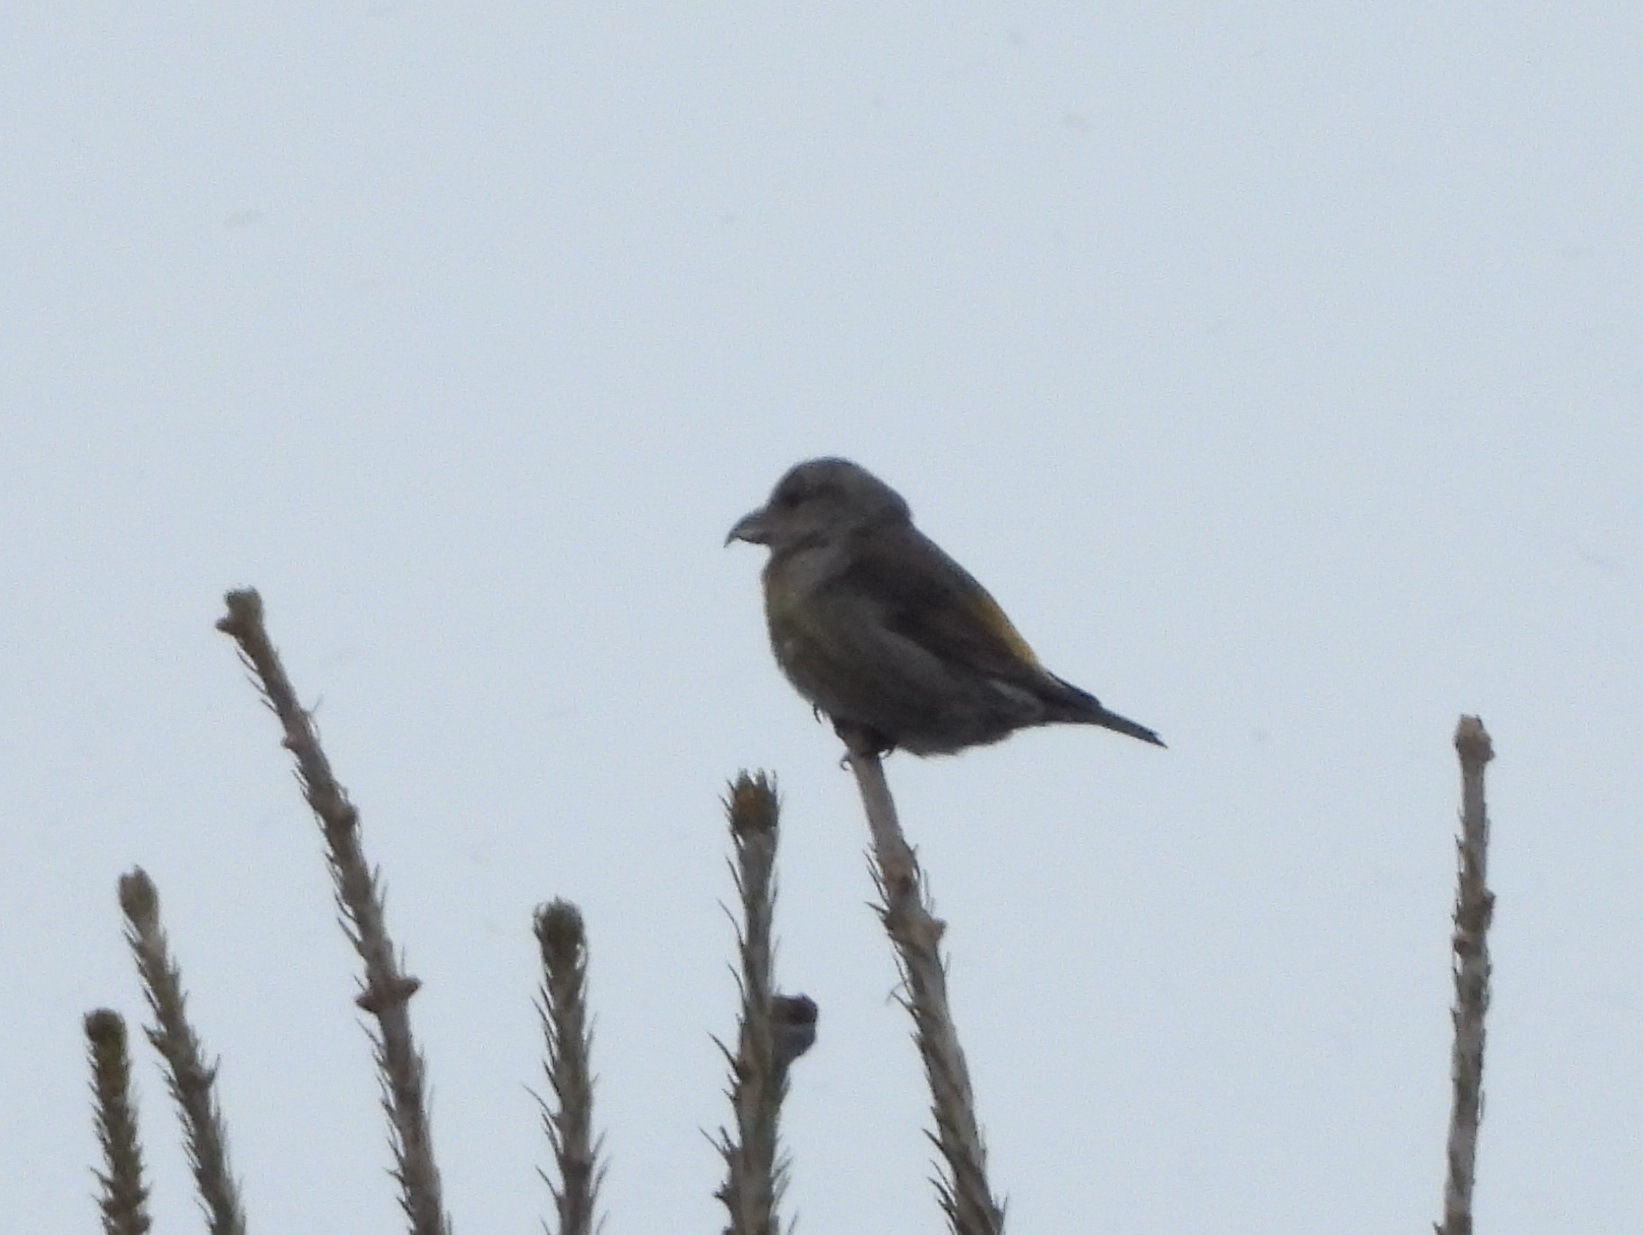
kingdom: Animalia
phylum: Chordata
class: Aves
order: Passeriformes
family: Fringillidae
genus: Loxia
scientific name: Loxia curvirostra
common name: Red crossbill
